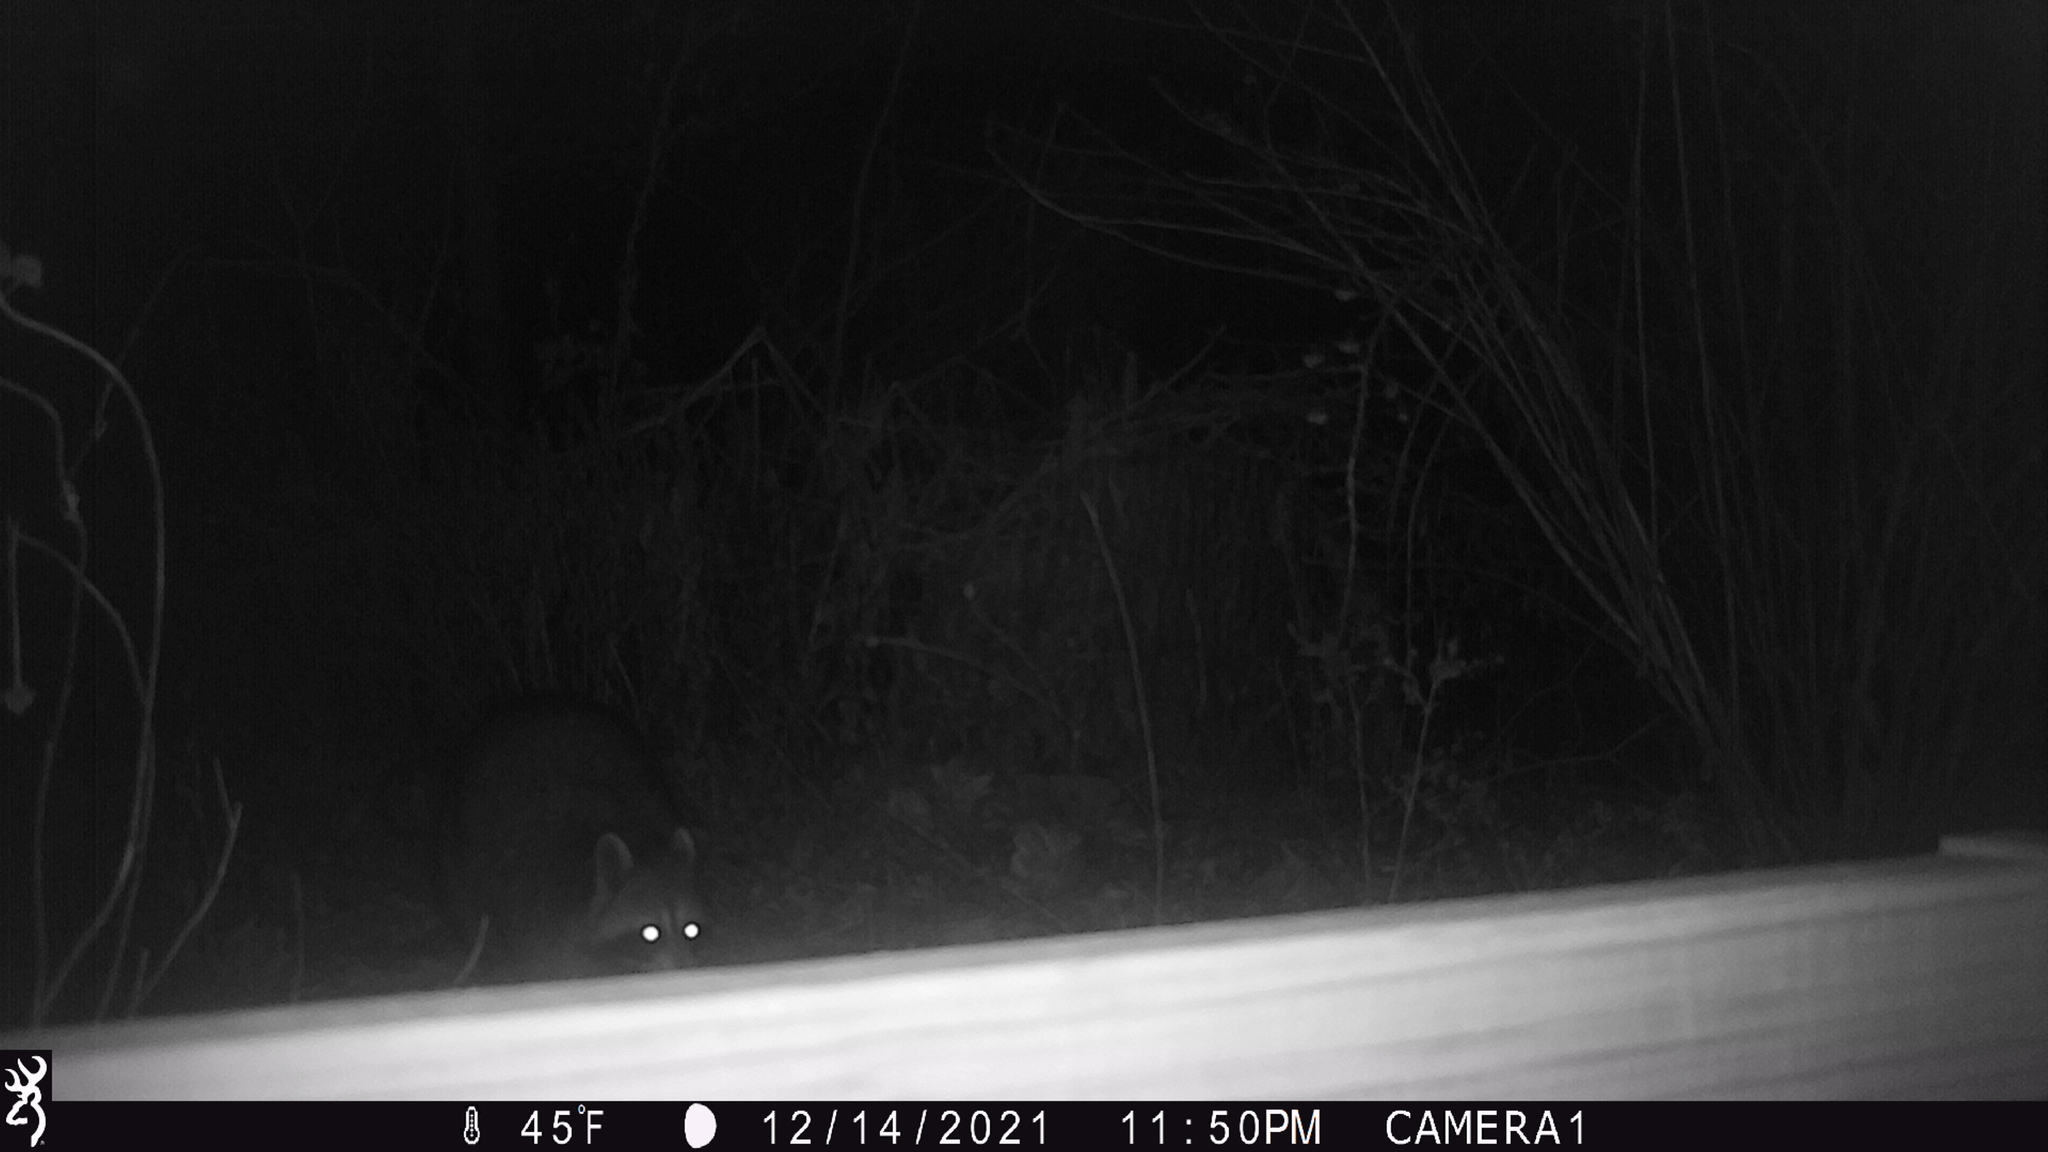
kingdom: Animalia
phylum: Chordata
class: Mammalia
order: Carnivora
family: Procyonidae
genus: Procyon
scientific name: Procyon lotor
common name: Raccoon
